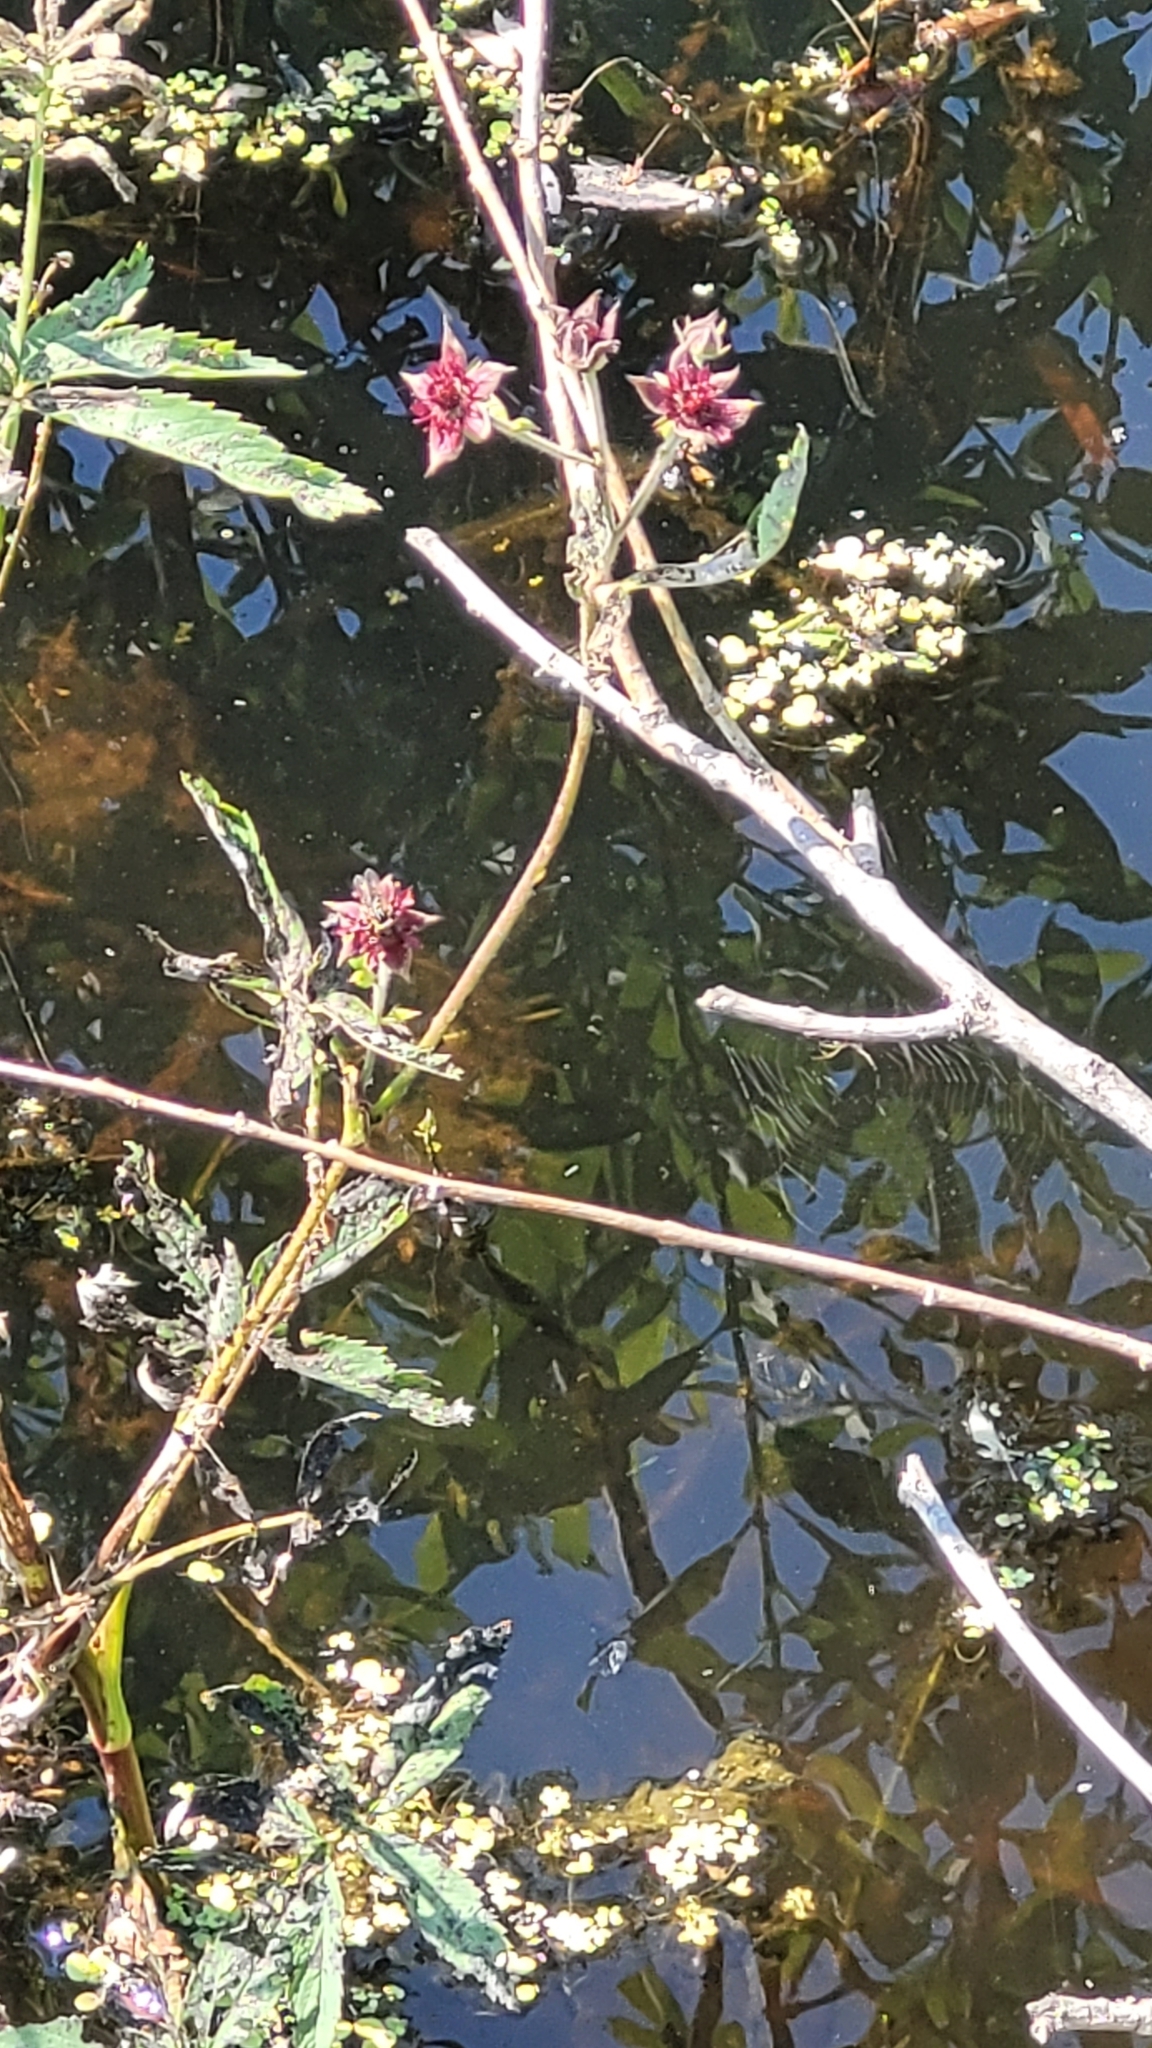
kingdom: Plantae
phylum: Tracheophyta
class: Magnoliopsida
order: Rosales
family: Rosaceae
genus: Comarum
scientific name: Comarum palustre
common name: Marsh cinquefoil
